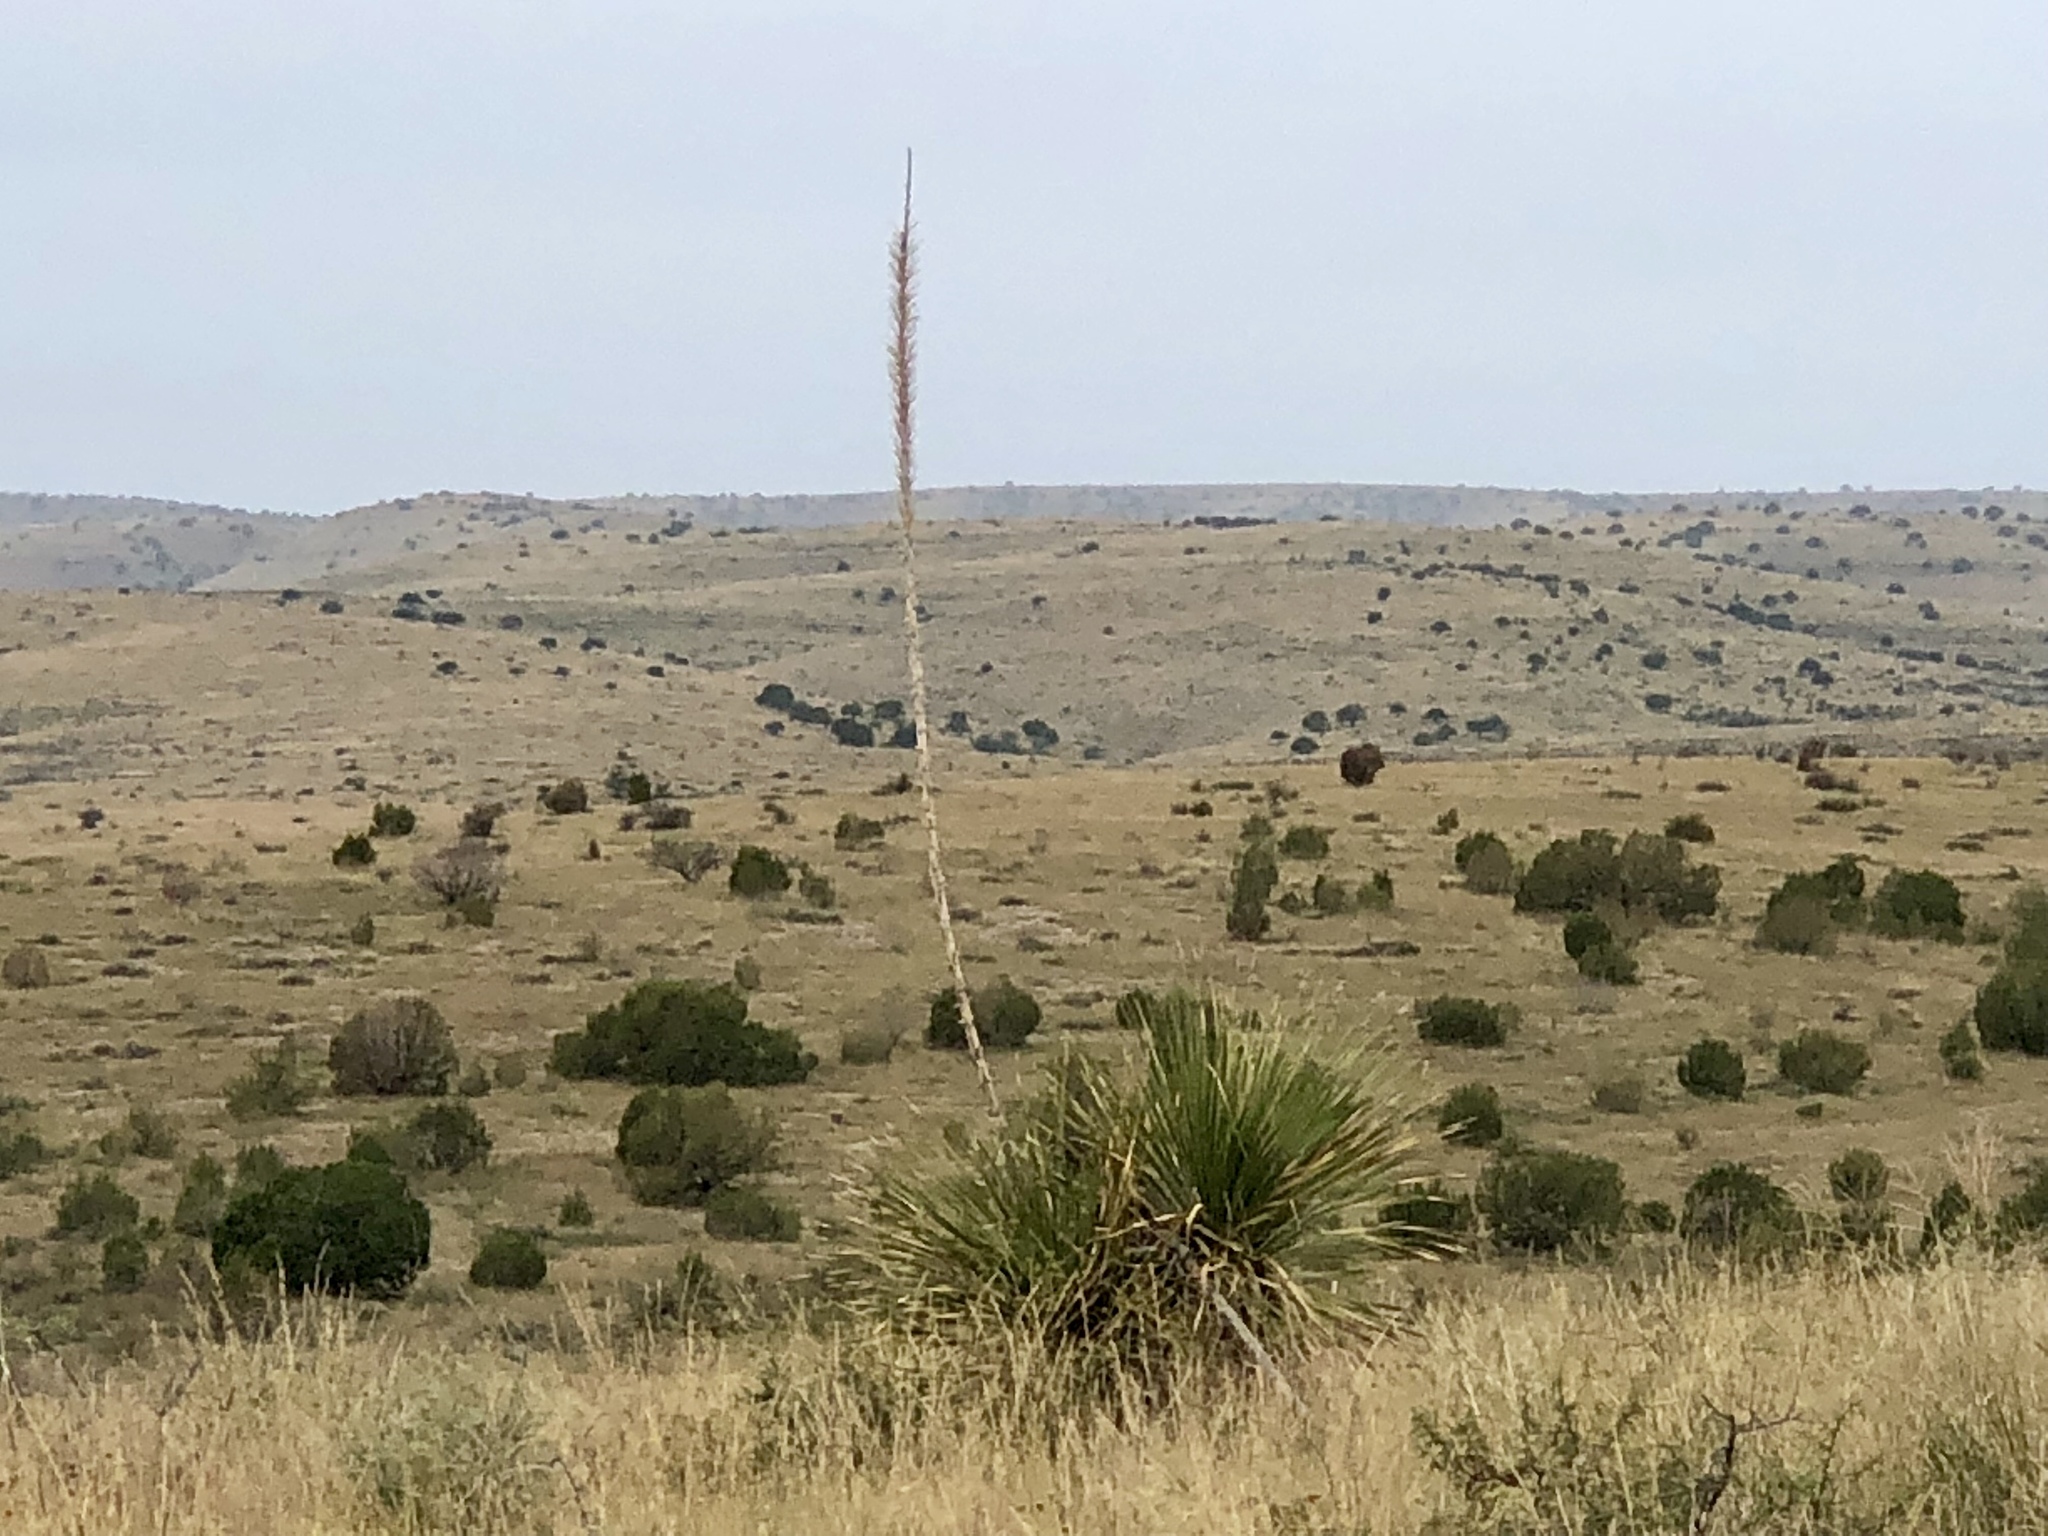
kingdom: Plantae
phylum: Tracheophyta
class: Liliopsida
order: Asparagales
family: Asparagaceae
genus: Dasylirion
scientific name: Dasylirion wheeleri
